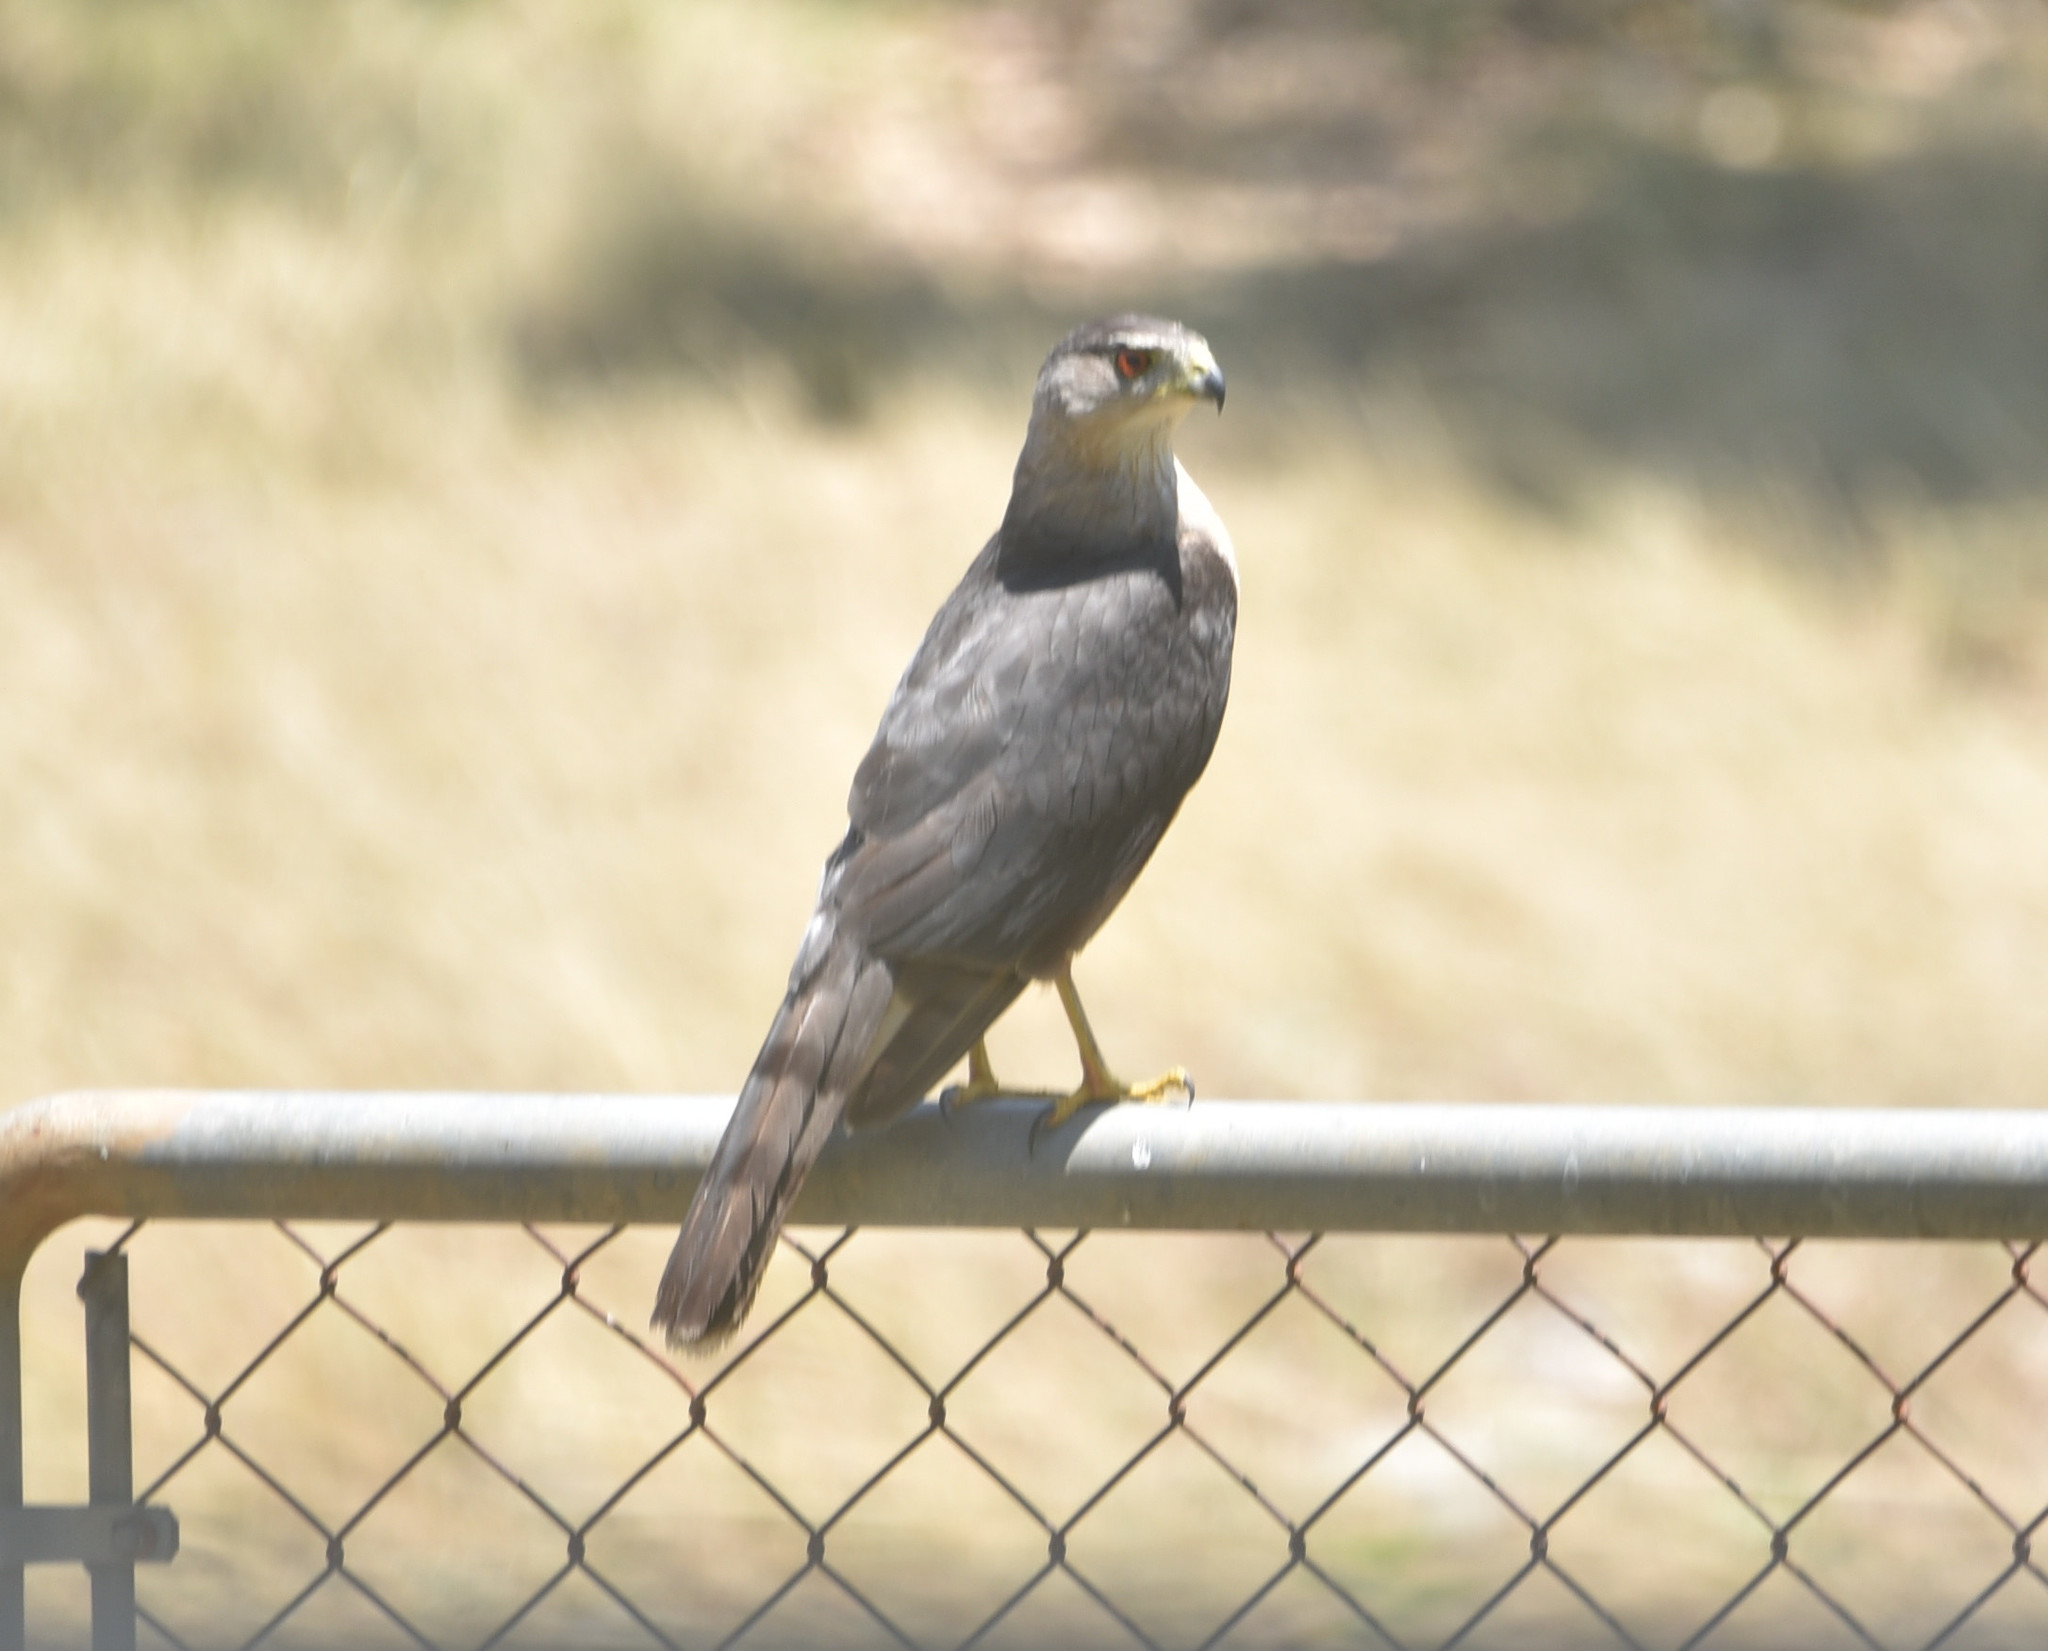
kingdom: Animalia
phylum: Chordata
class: Aves
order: Accipitriformes
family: Accipitridae
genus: Accipiter
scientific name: Accipiter cooperii
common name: Cooper's hawk
